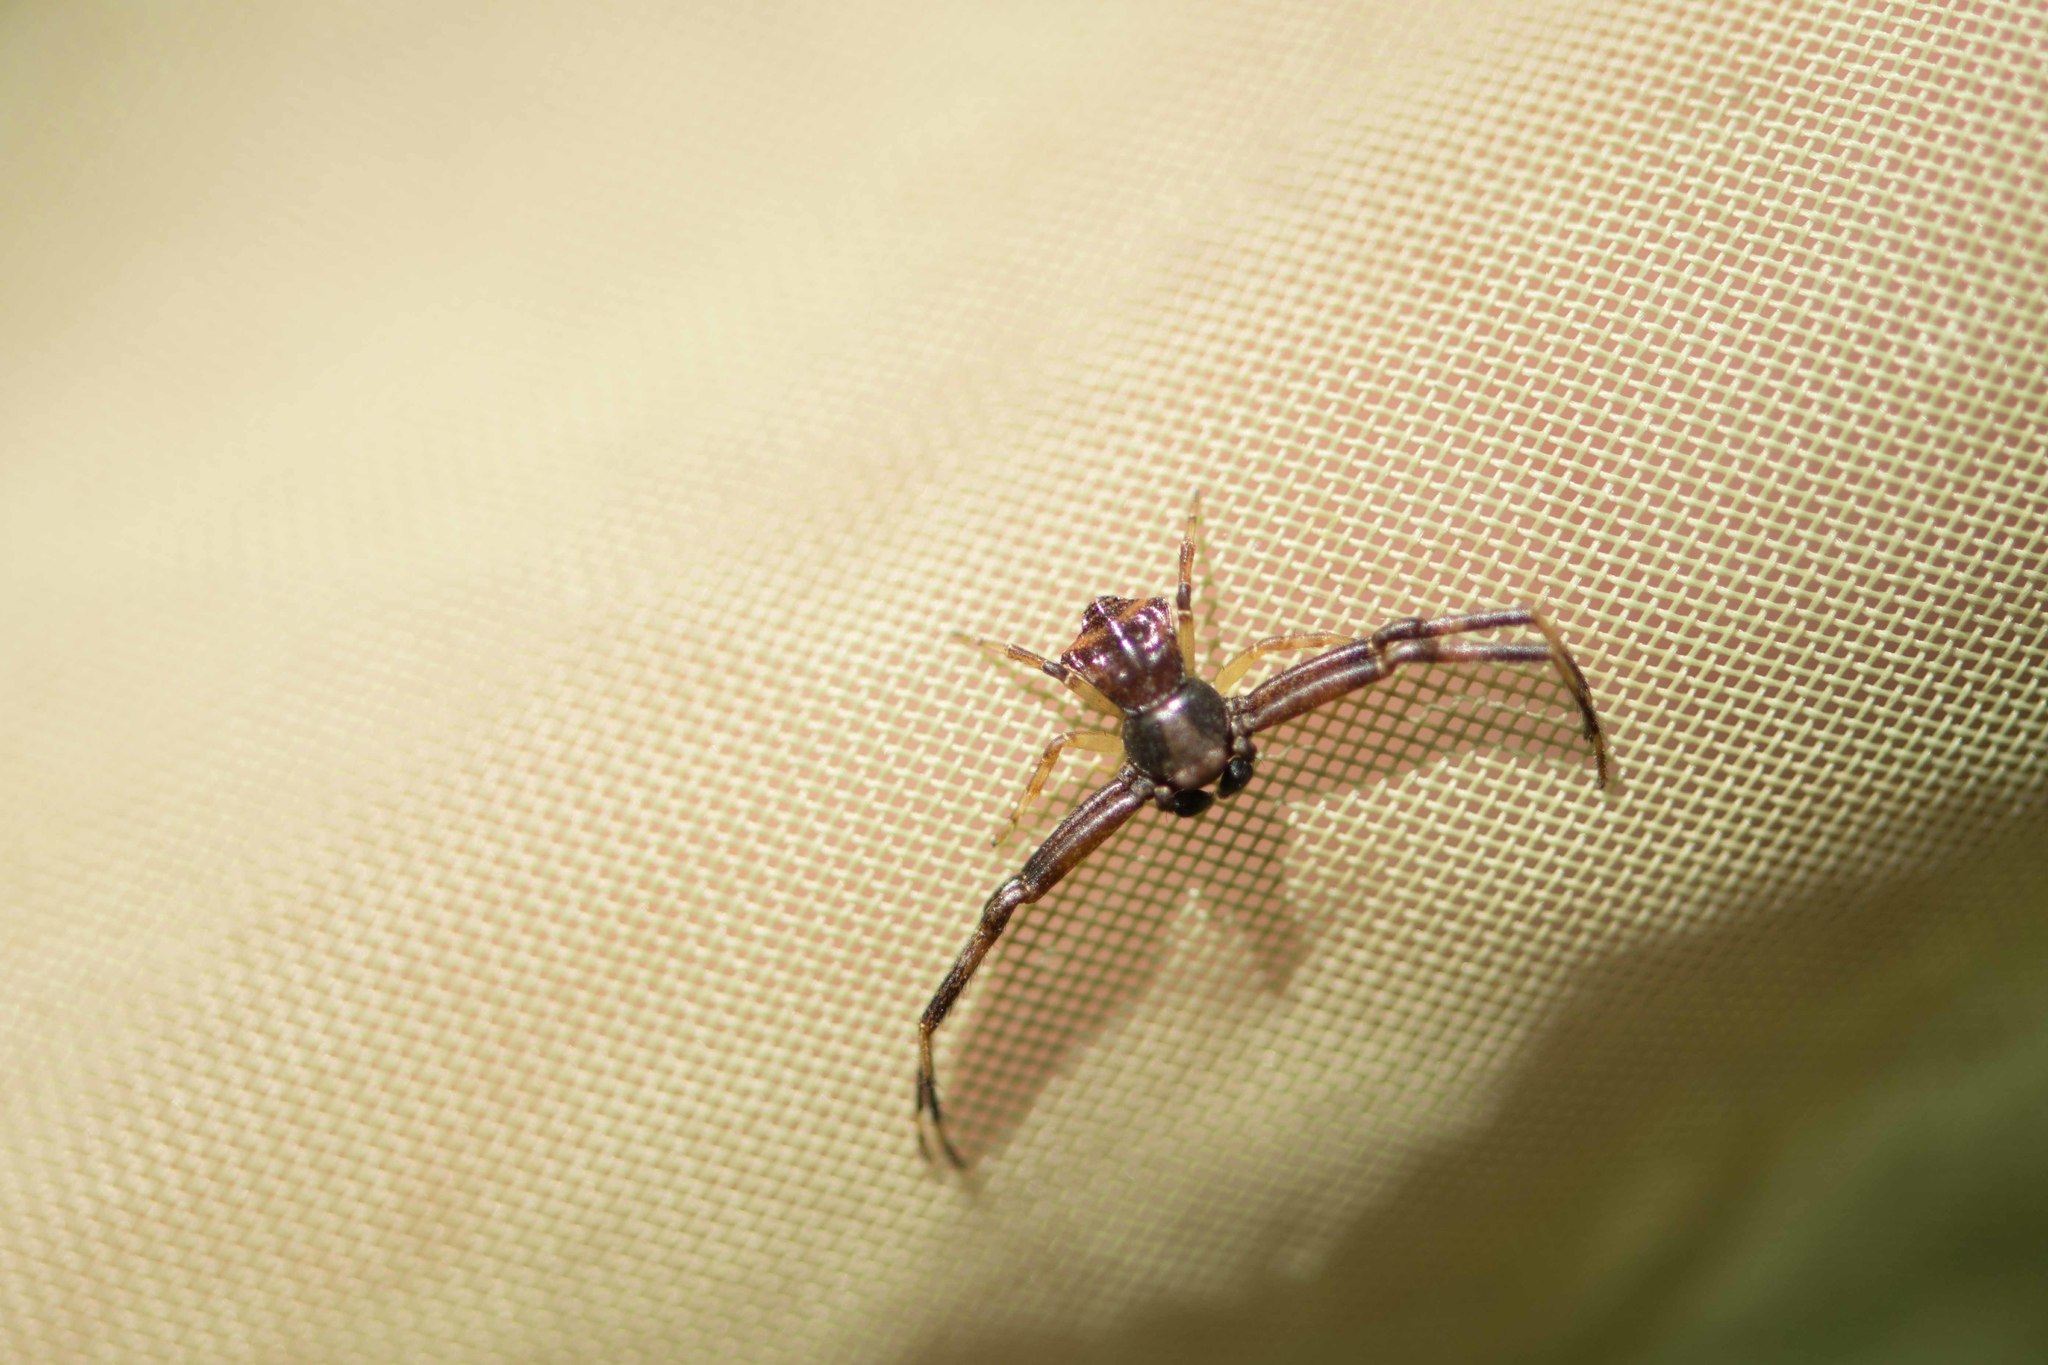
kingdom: Animalia
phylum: Arthropoda
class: Arachnida
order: Araneae
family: Thomisidae
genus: Pistius
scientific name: Pistius truncatus
